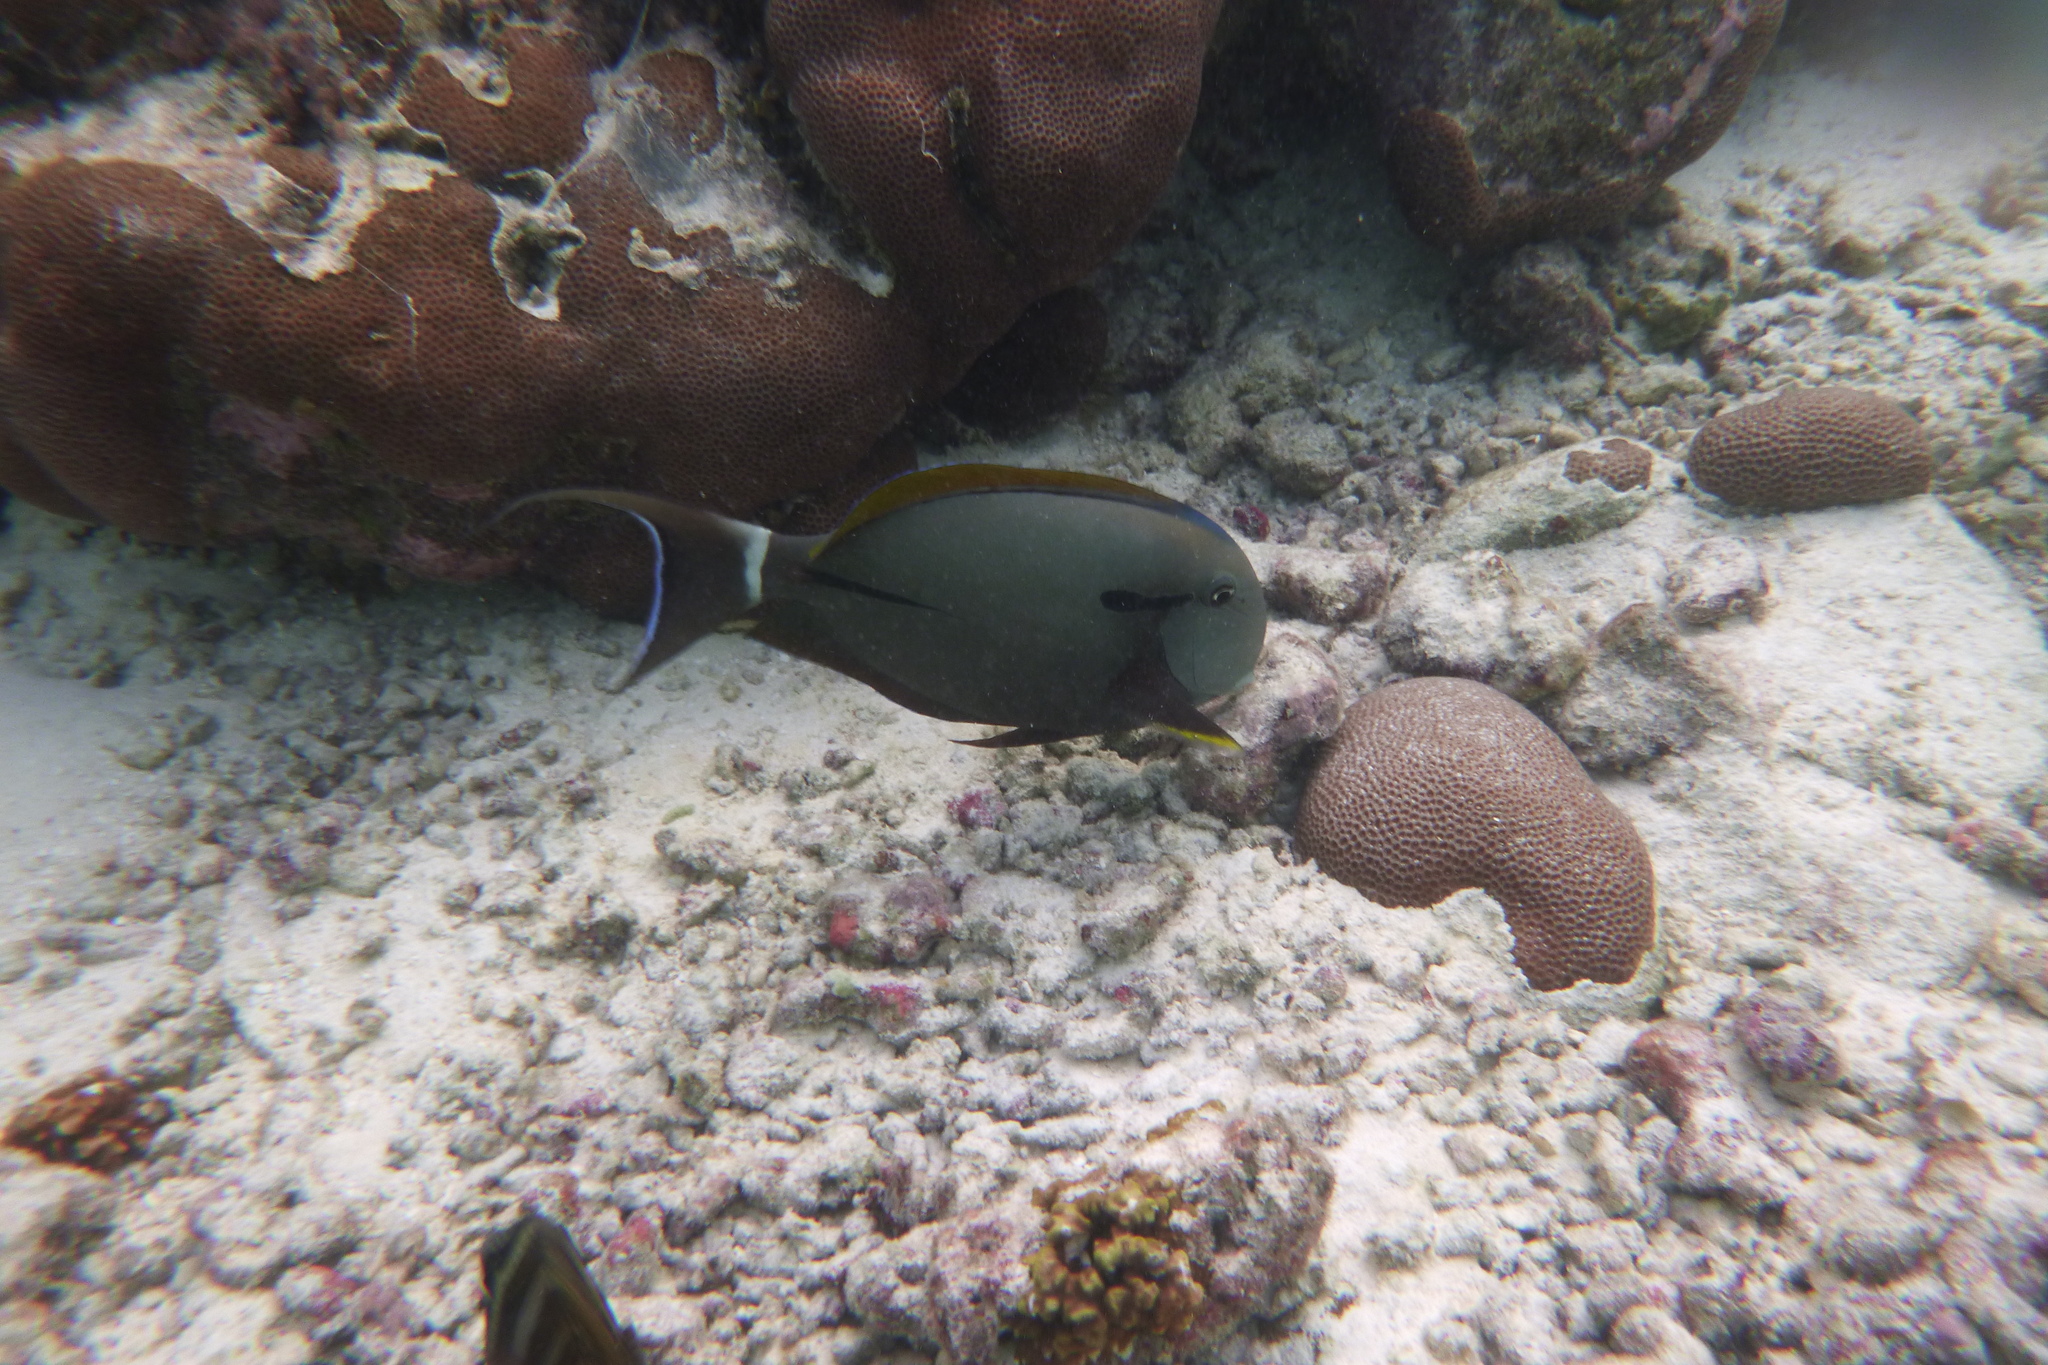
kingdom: Animalia
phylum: Chordata
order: Perciformes
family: Acanthuridae
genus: Acanthurus
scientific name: Acanthurus nigricauda
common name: Black-barred surgeonfish
